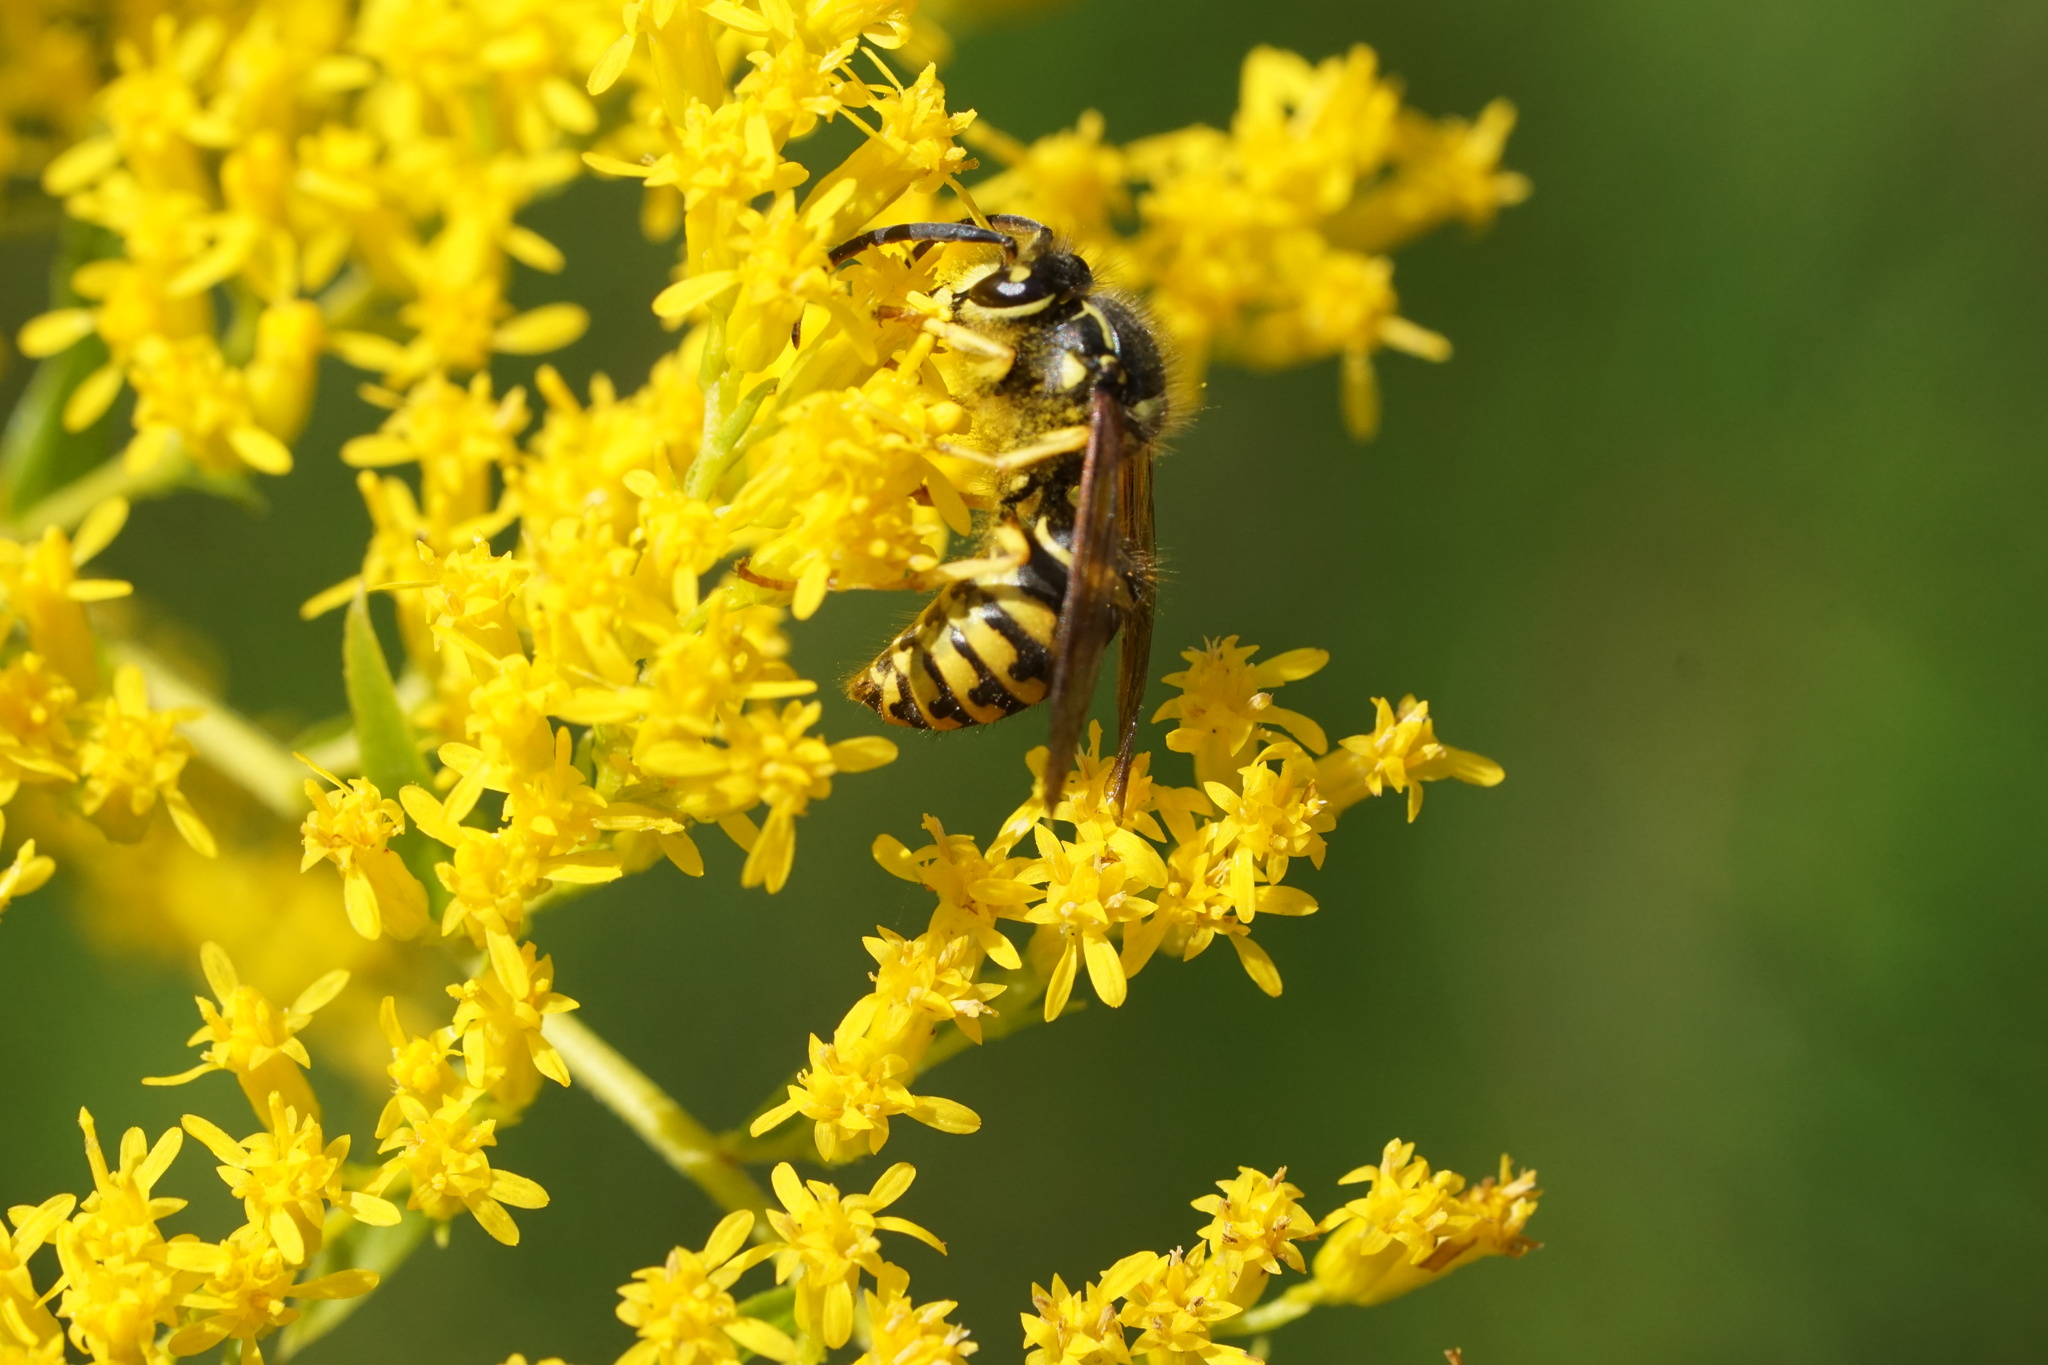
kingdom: Animalia
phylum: Arthropoda
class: Insecta
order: Hymenoptera
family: Vespidae
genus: Dolichovespula
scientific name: Dolichovespula arenaria
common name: Aerial yellowjacket
